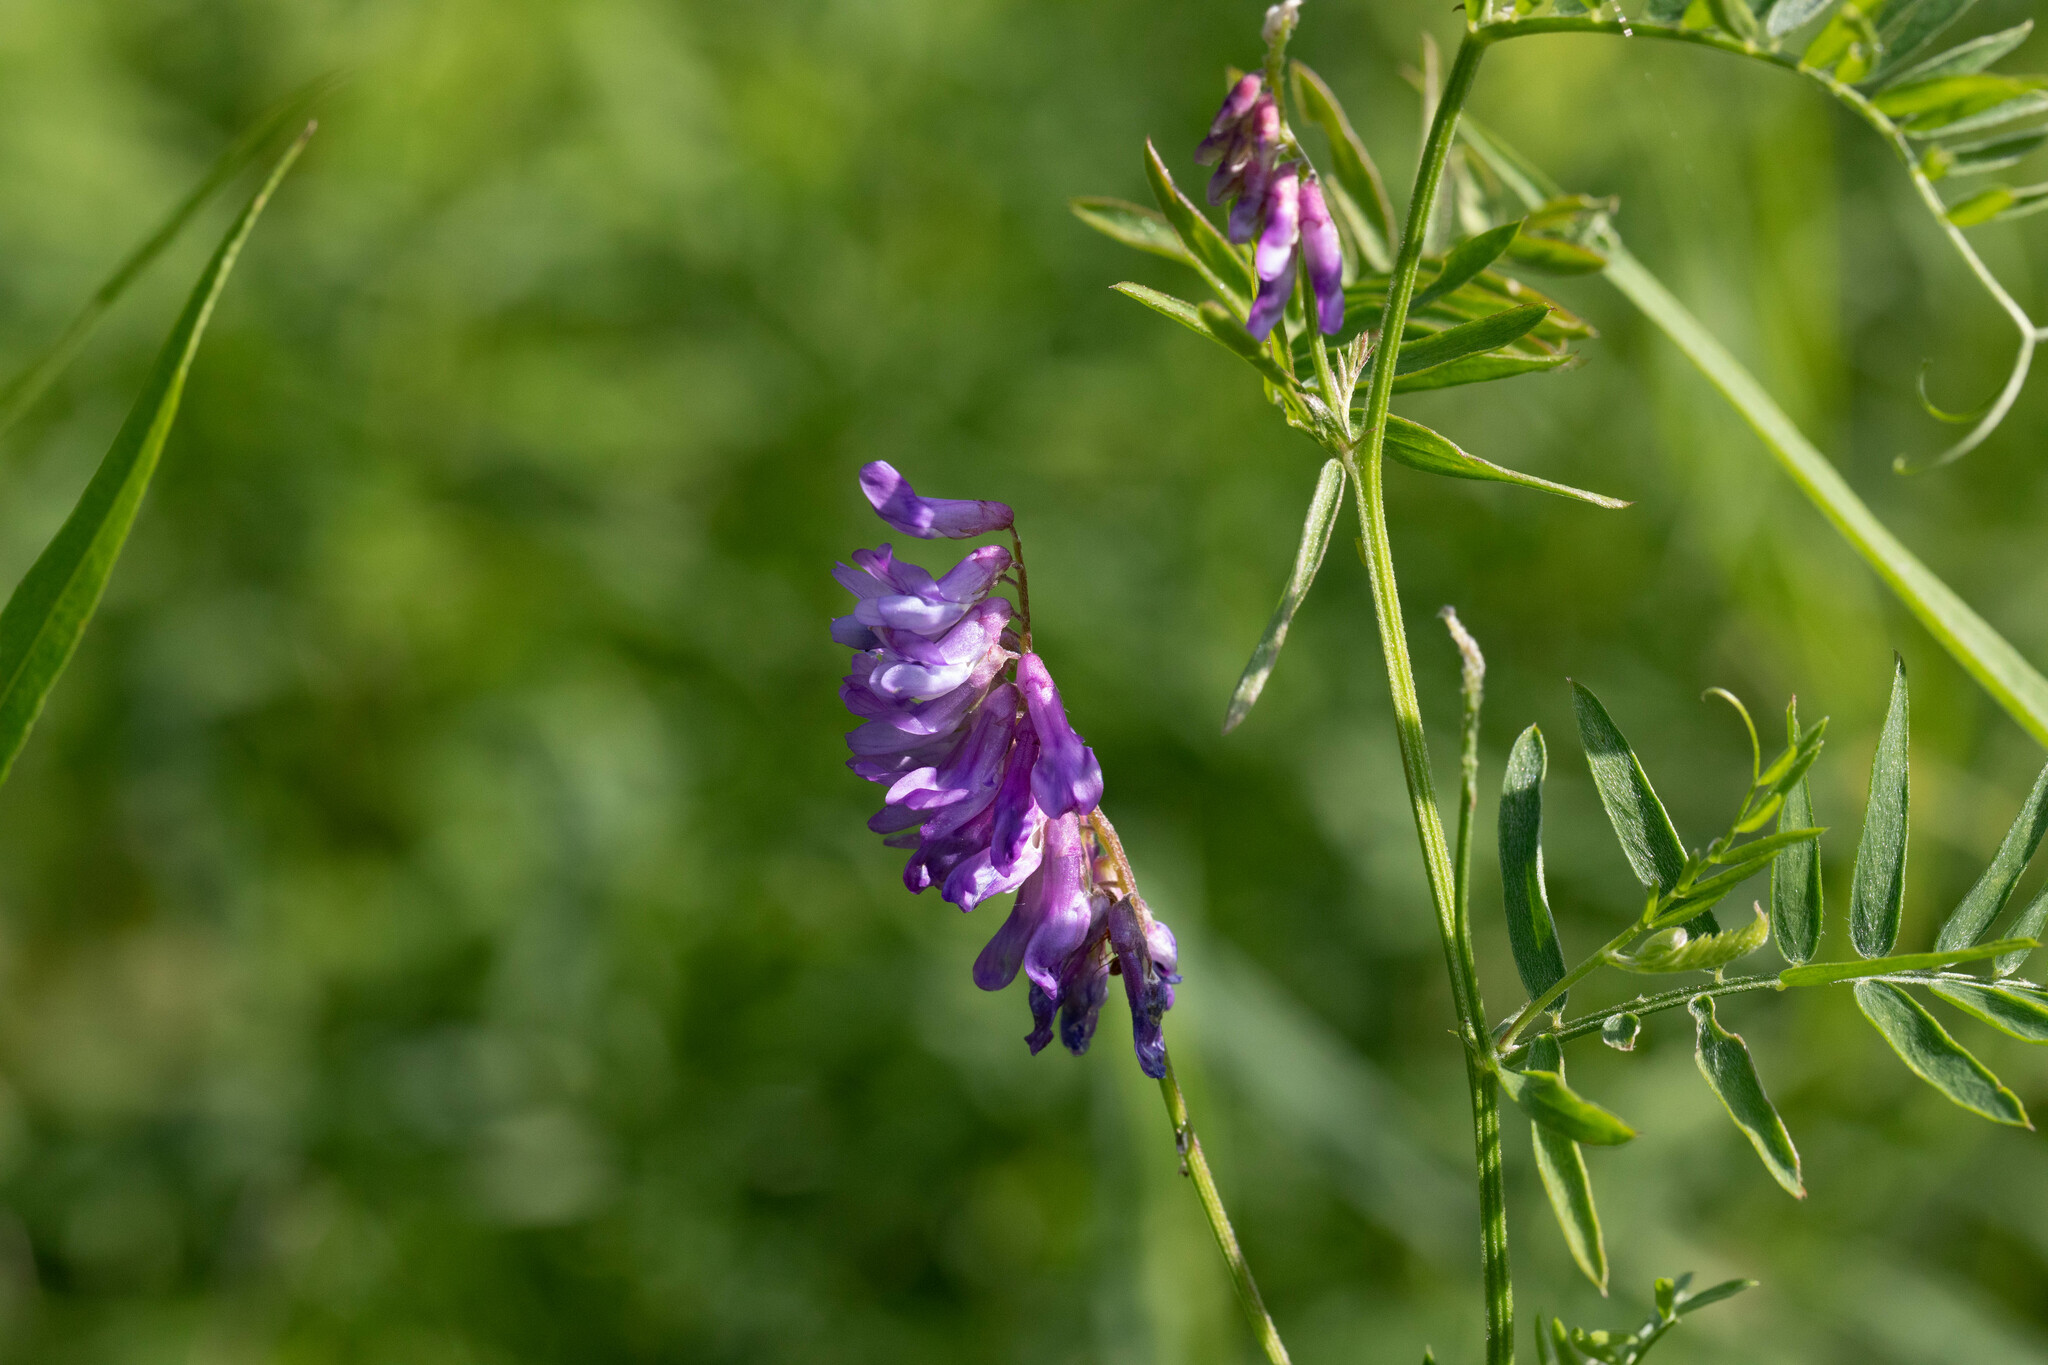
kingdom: Plantae
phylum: Tracheophyta
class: Magnoliopsida
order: Fabales
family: Fabaceae
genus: Vicia
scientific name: Vicia cracca
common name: Bird vetch
